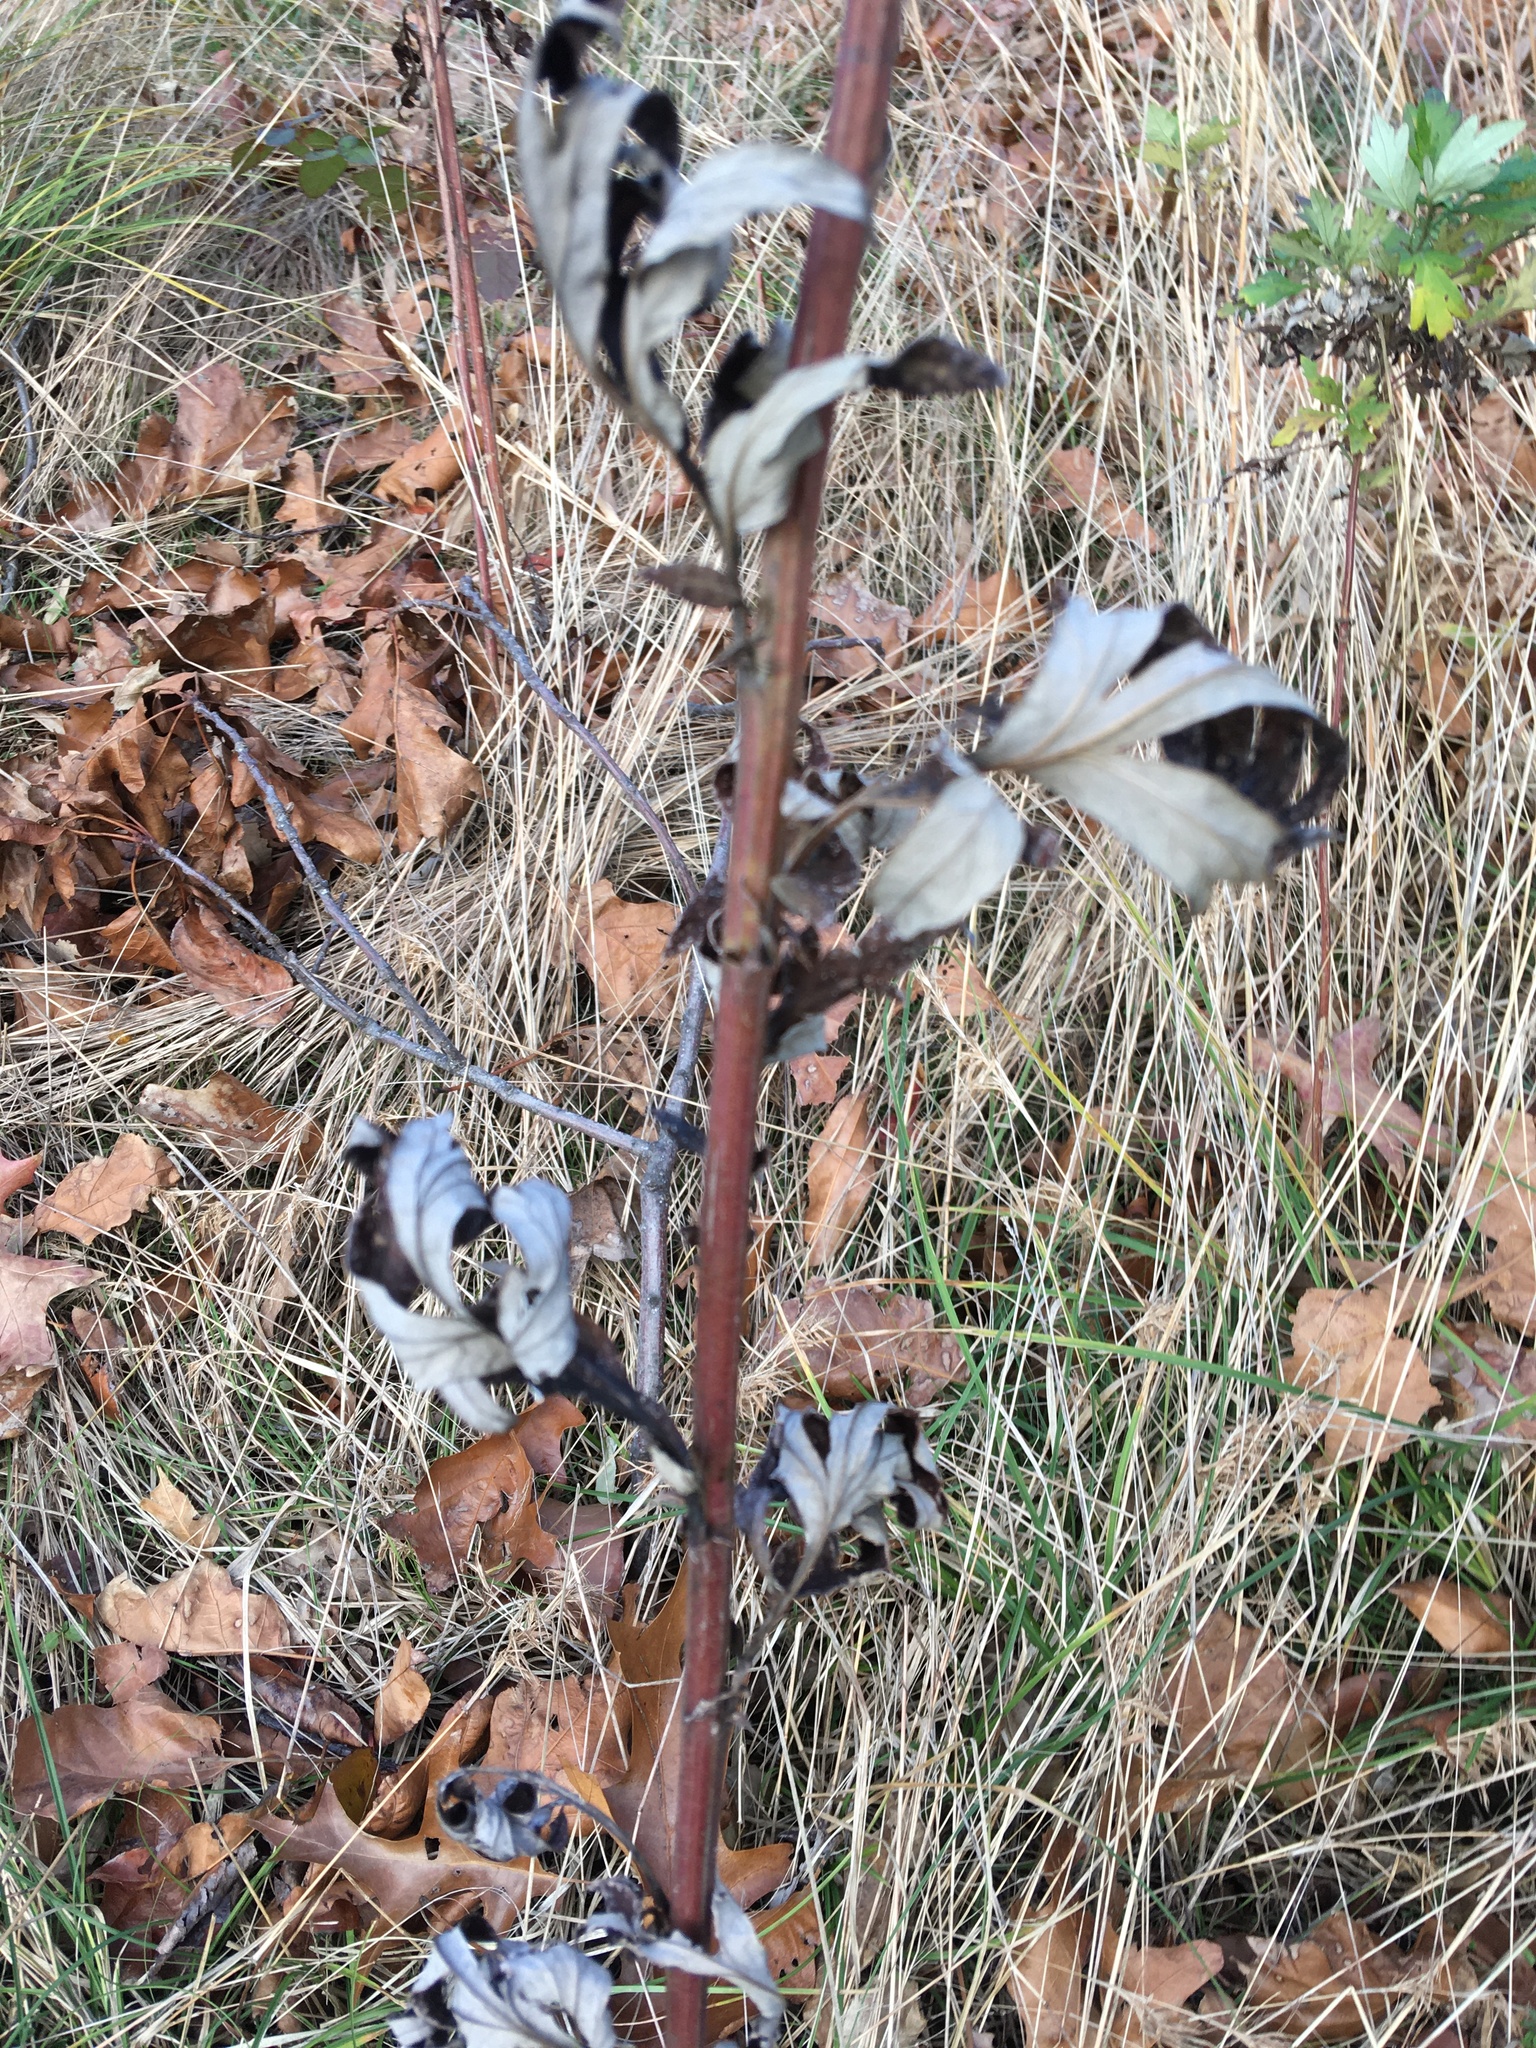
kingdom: Plantae
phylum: Tracheophyta
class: Magnoliopsida
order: Asterales
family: Asteraceae
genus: Artemisia
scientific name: Artemisia vulgaris
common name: Mugwort
